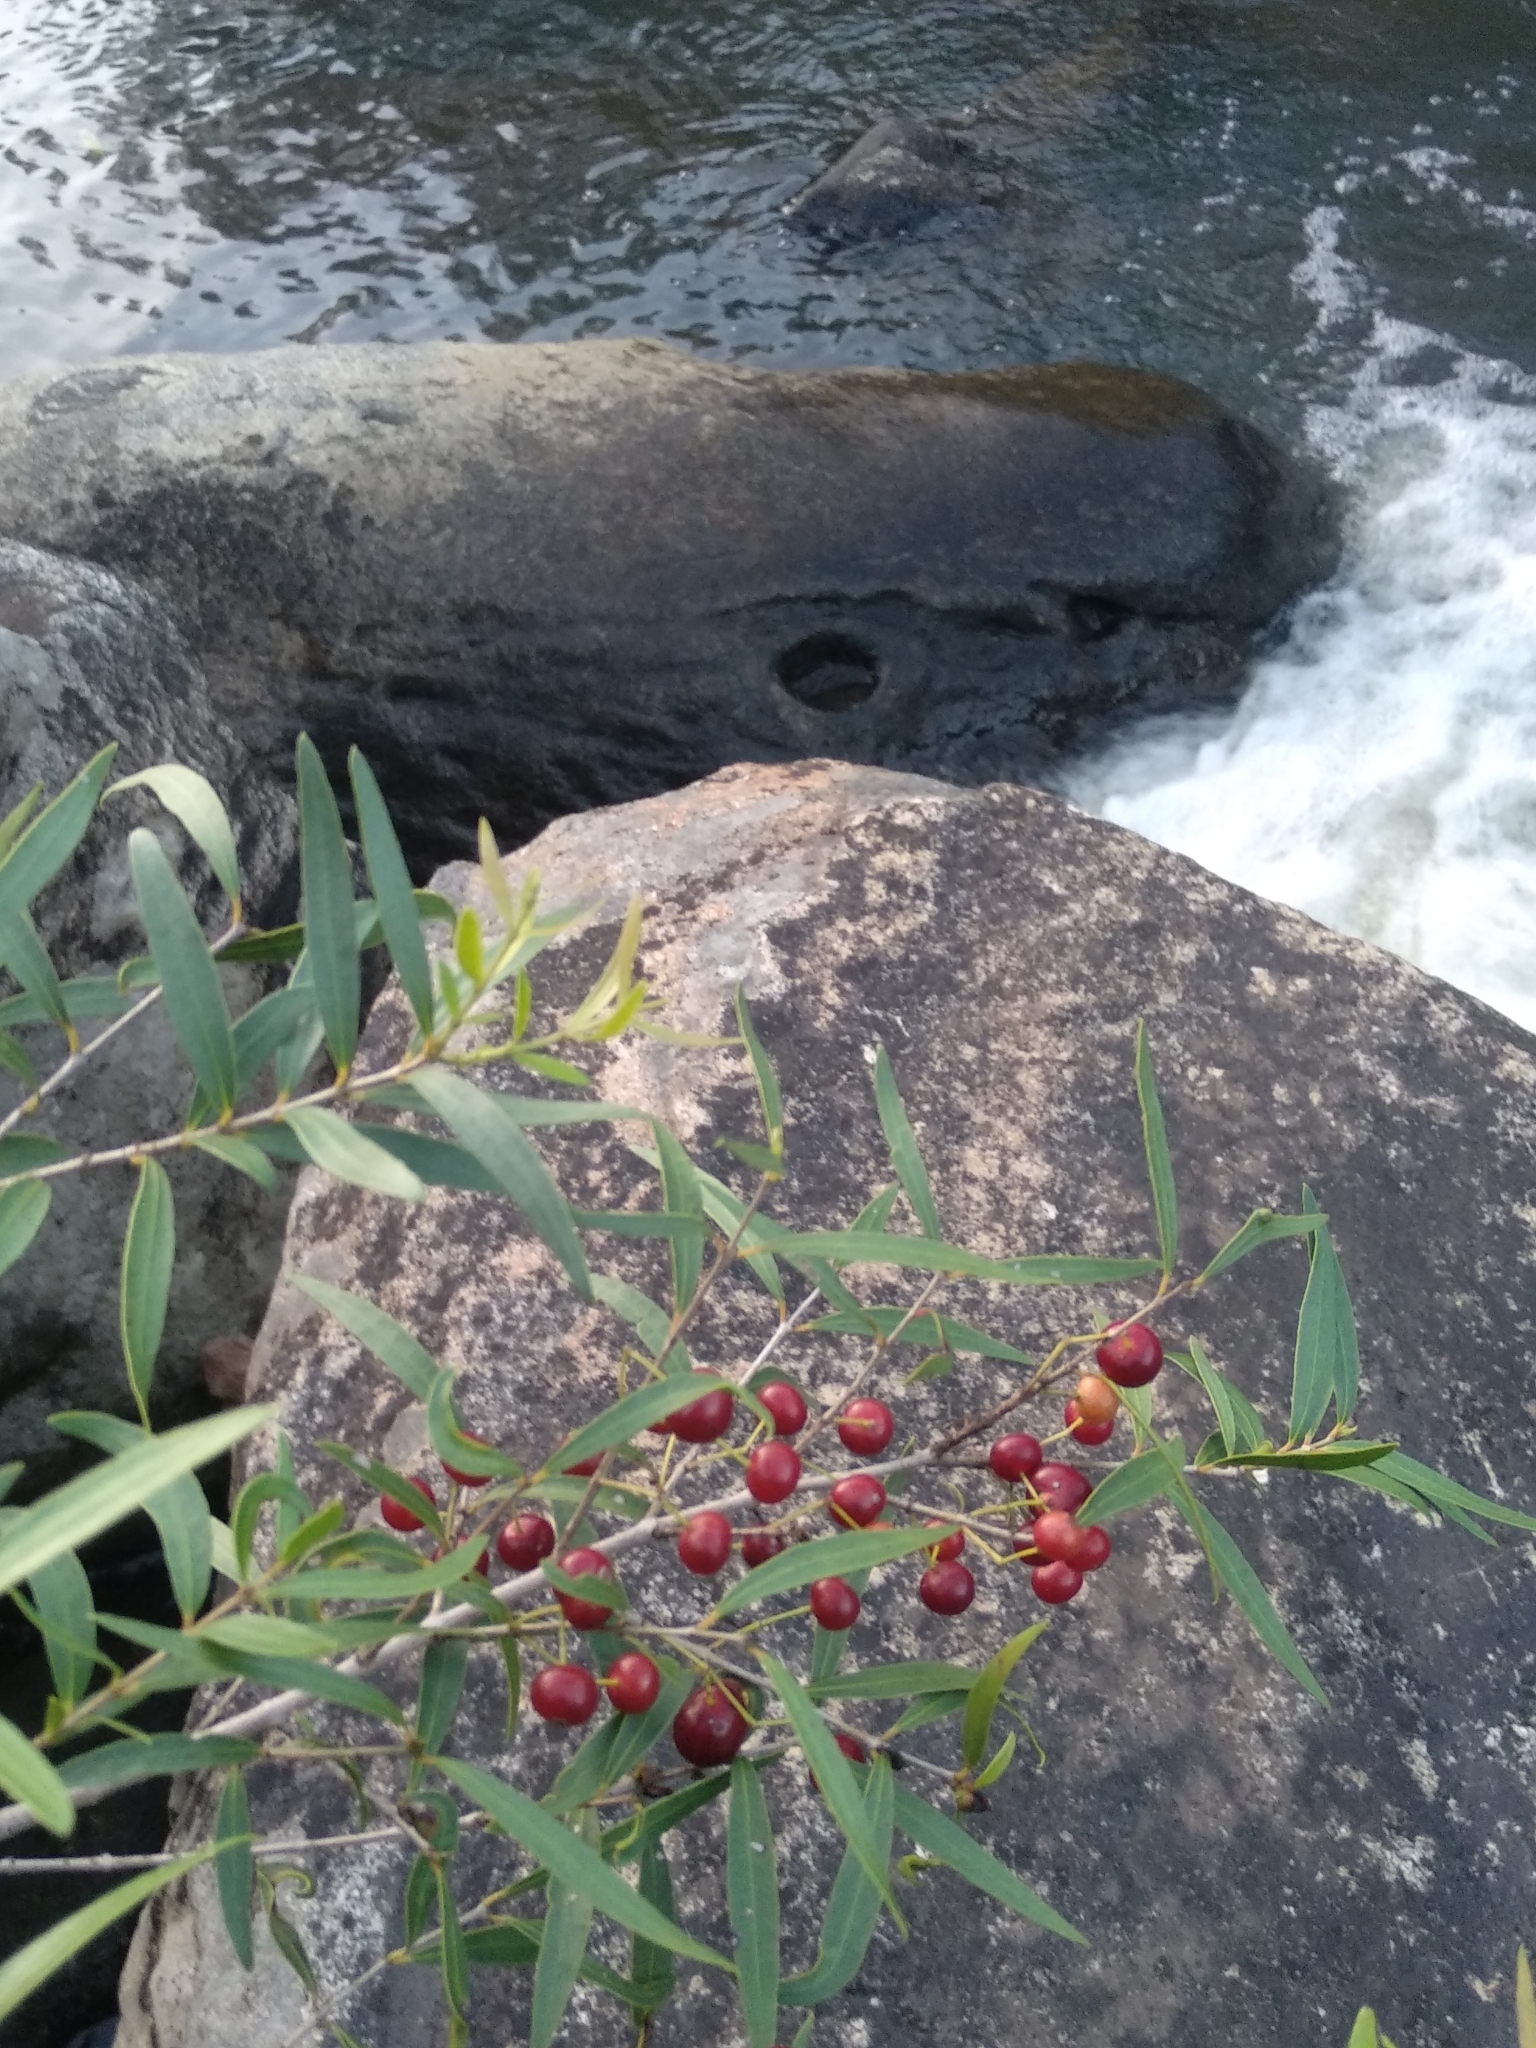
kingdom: Plantae
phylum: Tracheophyta
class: Magnoliopsida
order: Myrtales
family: Myrtaceae
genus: Blepharocalyx
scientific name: Blepharocalyx salicifolius
